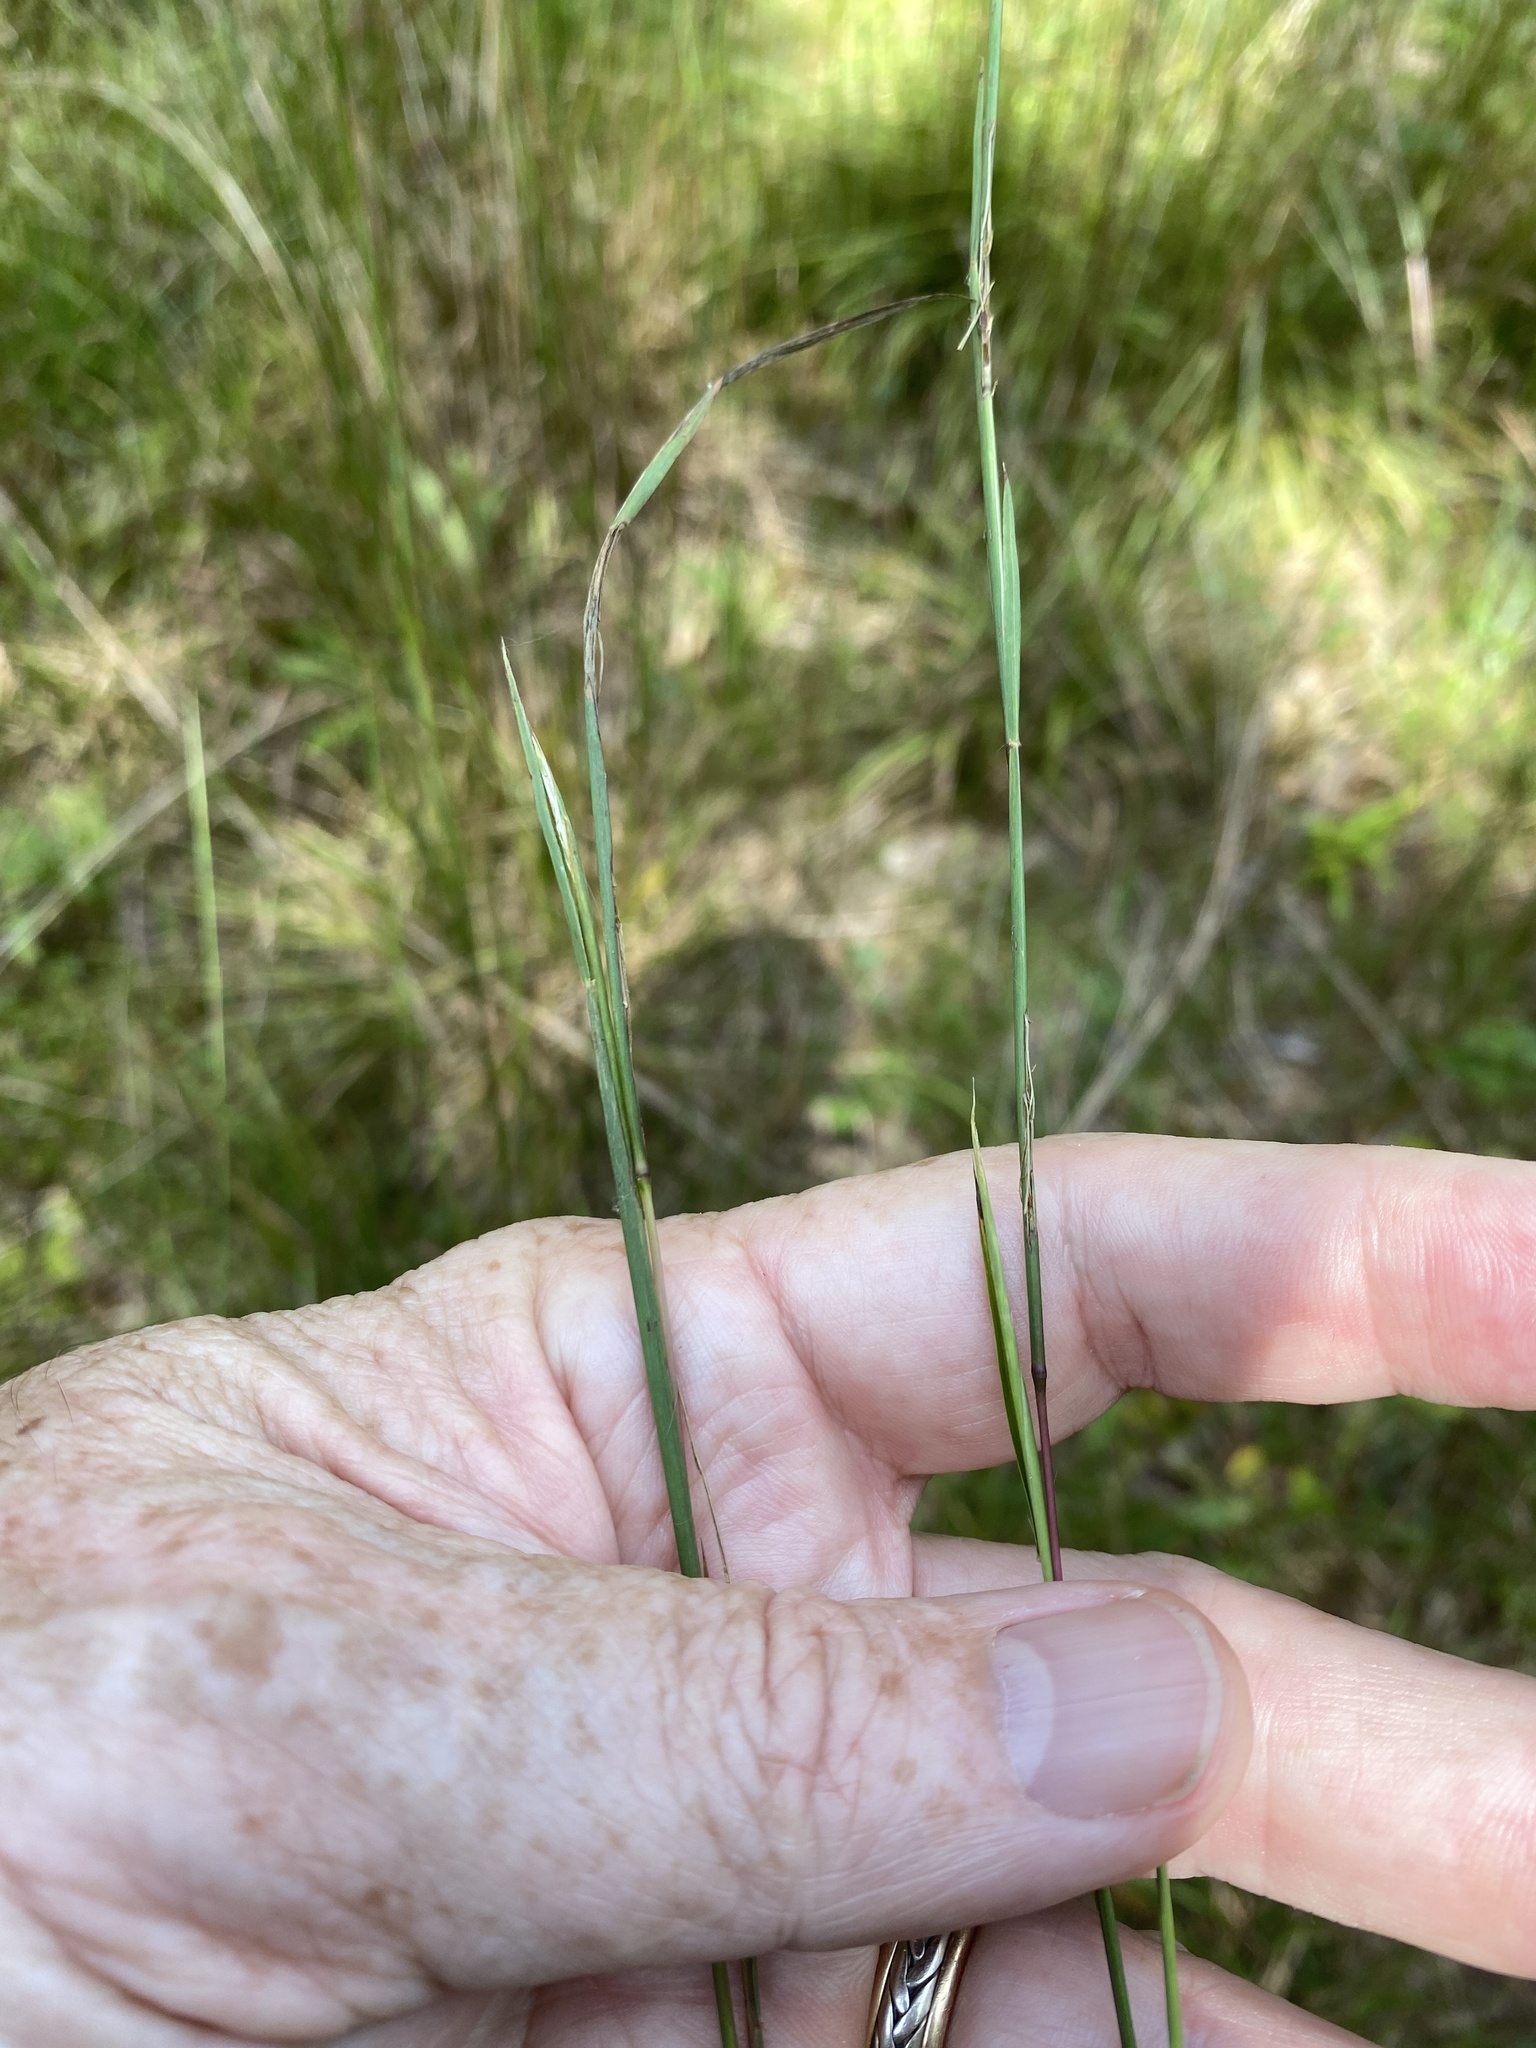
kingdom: Plantae
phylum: Tracheophyta
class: Liliopsida
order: Poales
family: Poaceae
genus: Schizachyrium
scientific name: Schizachyrium scoparium
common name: Little bluestem
